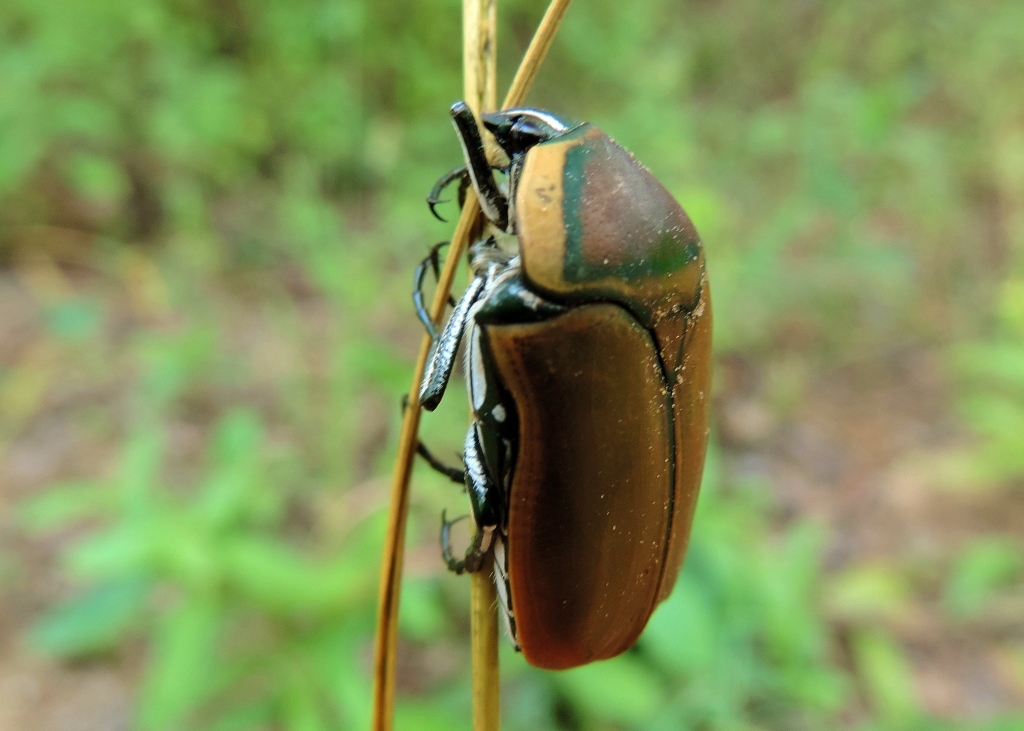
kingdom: Animalia
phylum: Arthropoda
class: Insecta
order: Coleoptera
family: Scarabaeidae
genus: Dischista
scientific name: Dischista cincta
